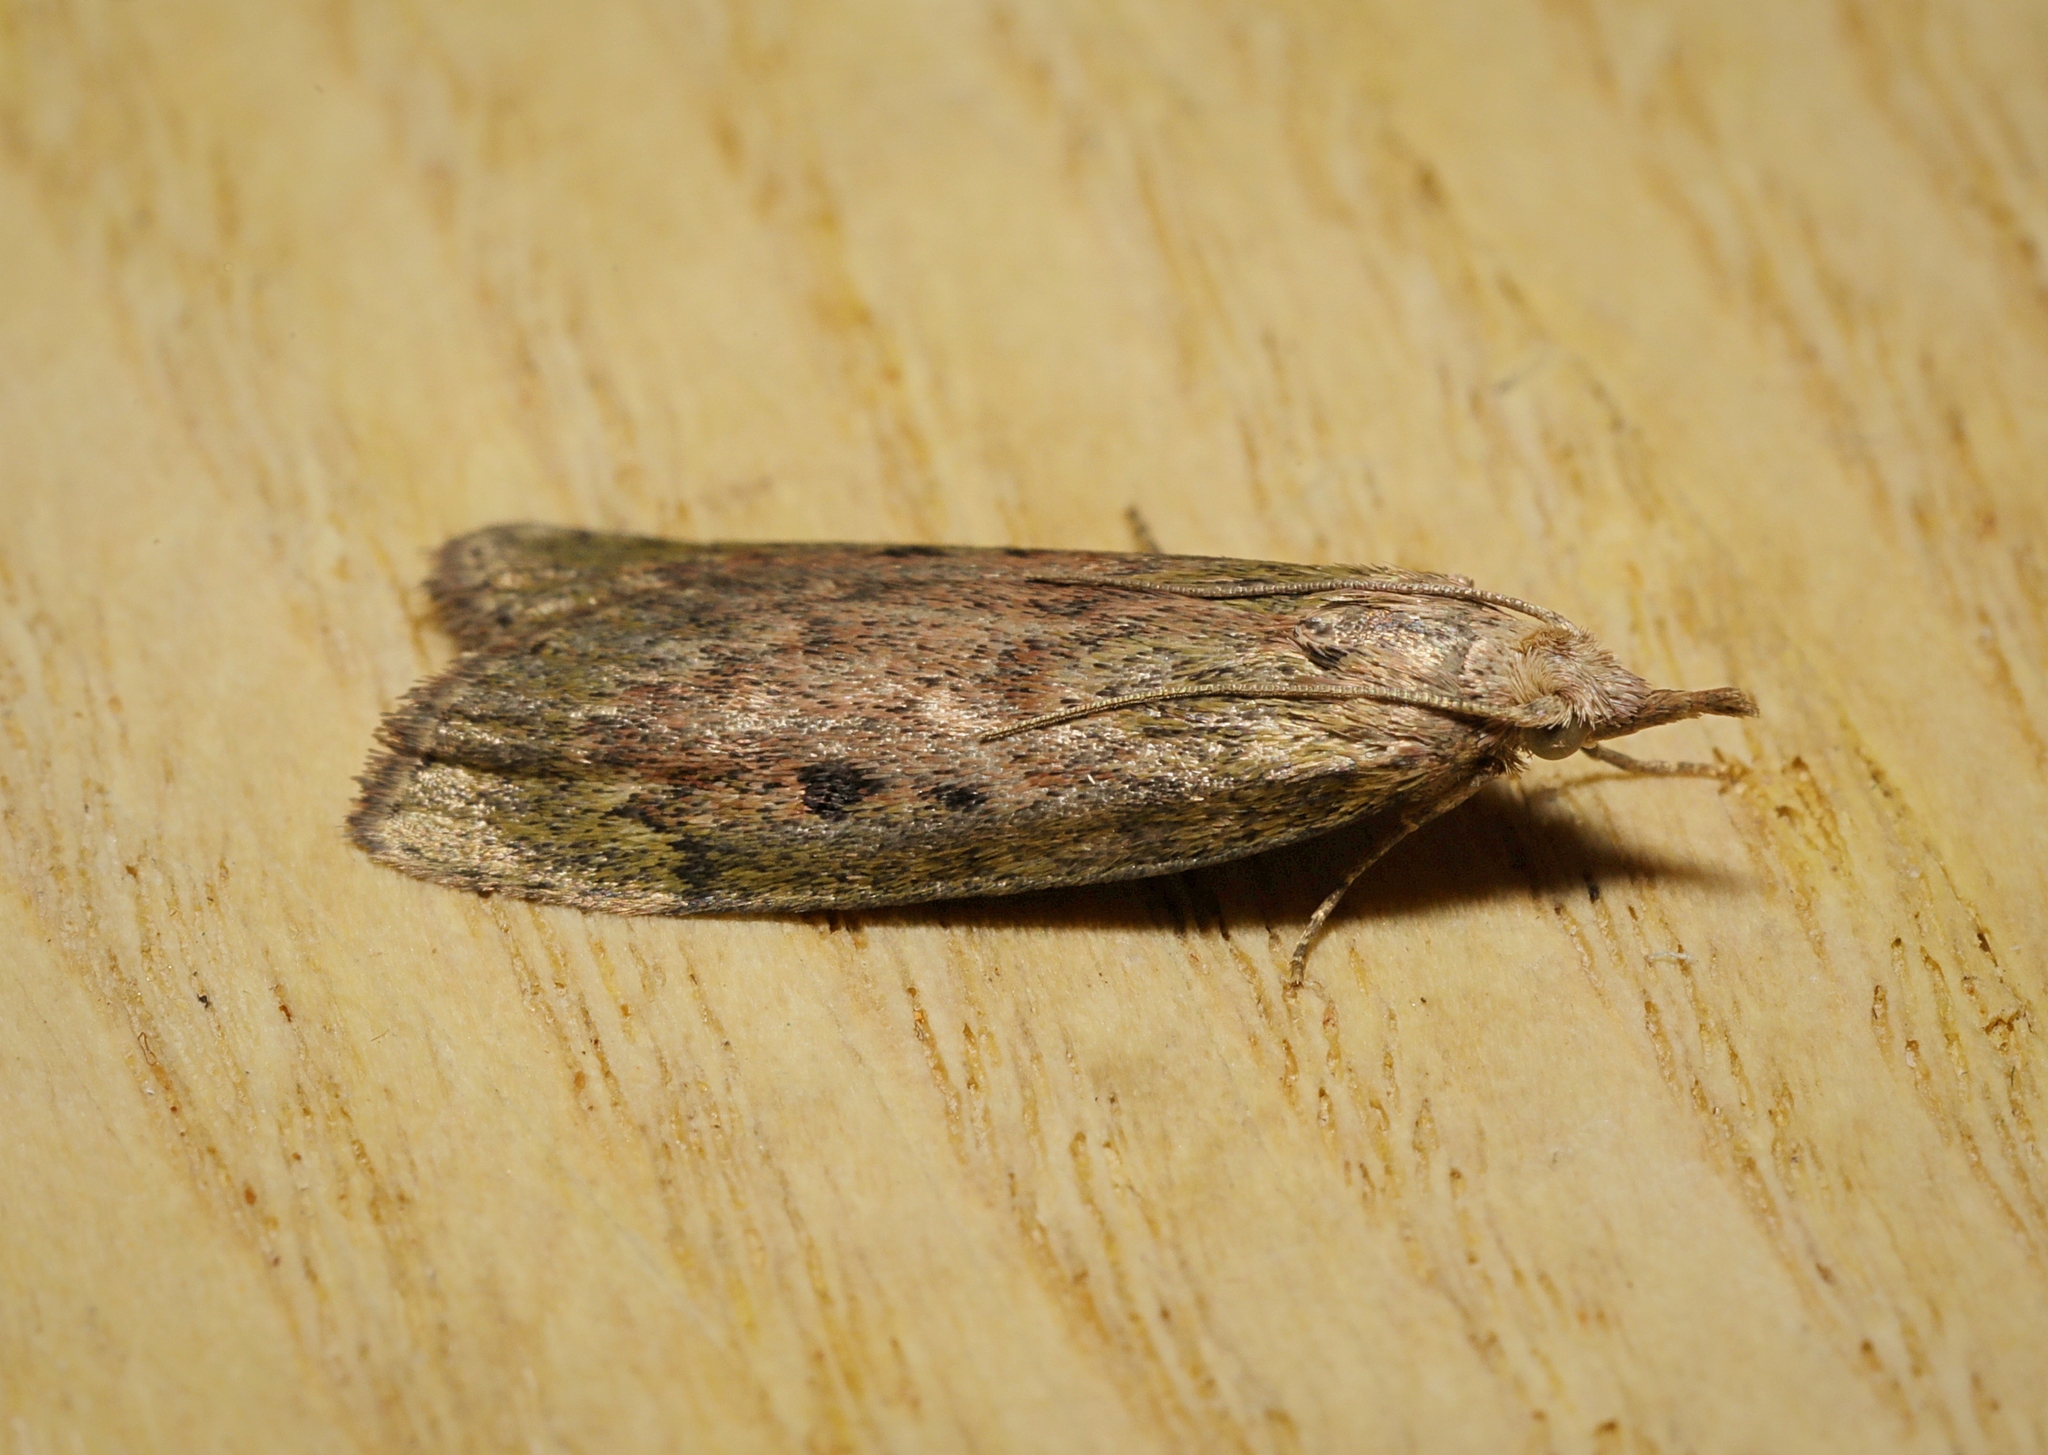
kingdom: Animalia
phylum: Arthropoda
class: Insecta
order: Lepidoptera
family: Pyralidae
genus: Aphomia
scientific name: Aphomia sociella
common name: Bee moth
